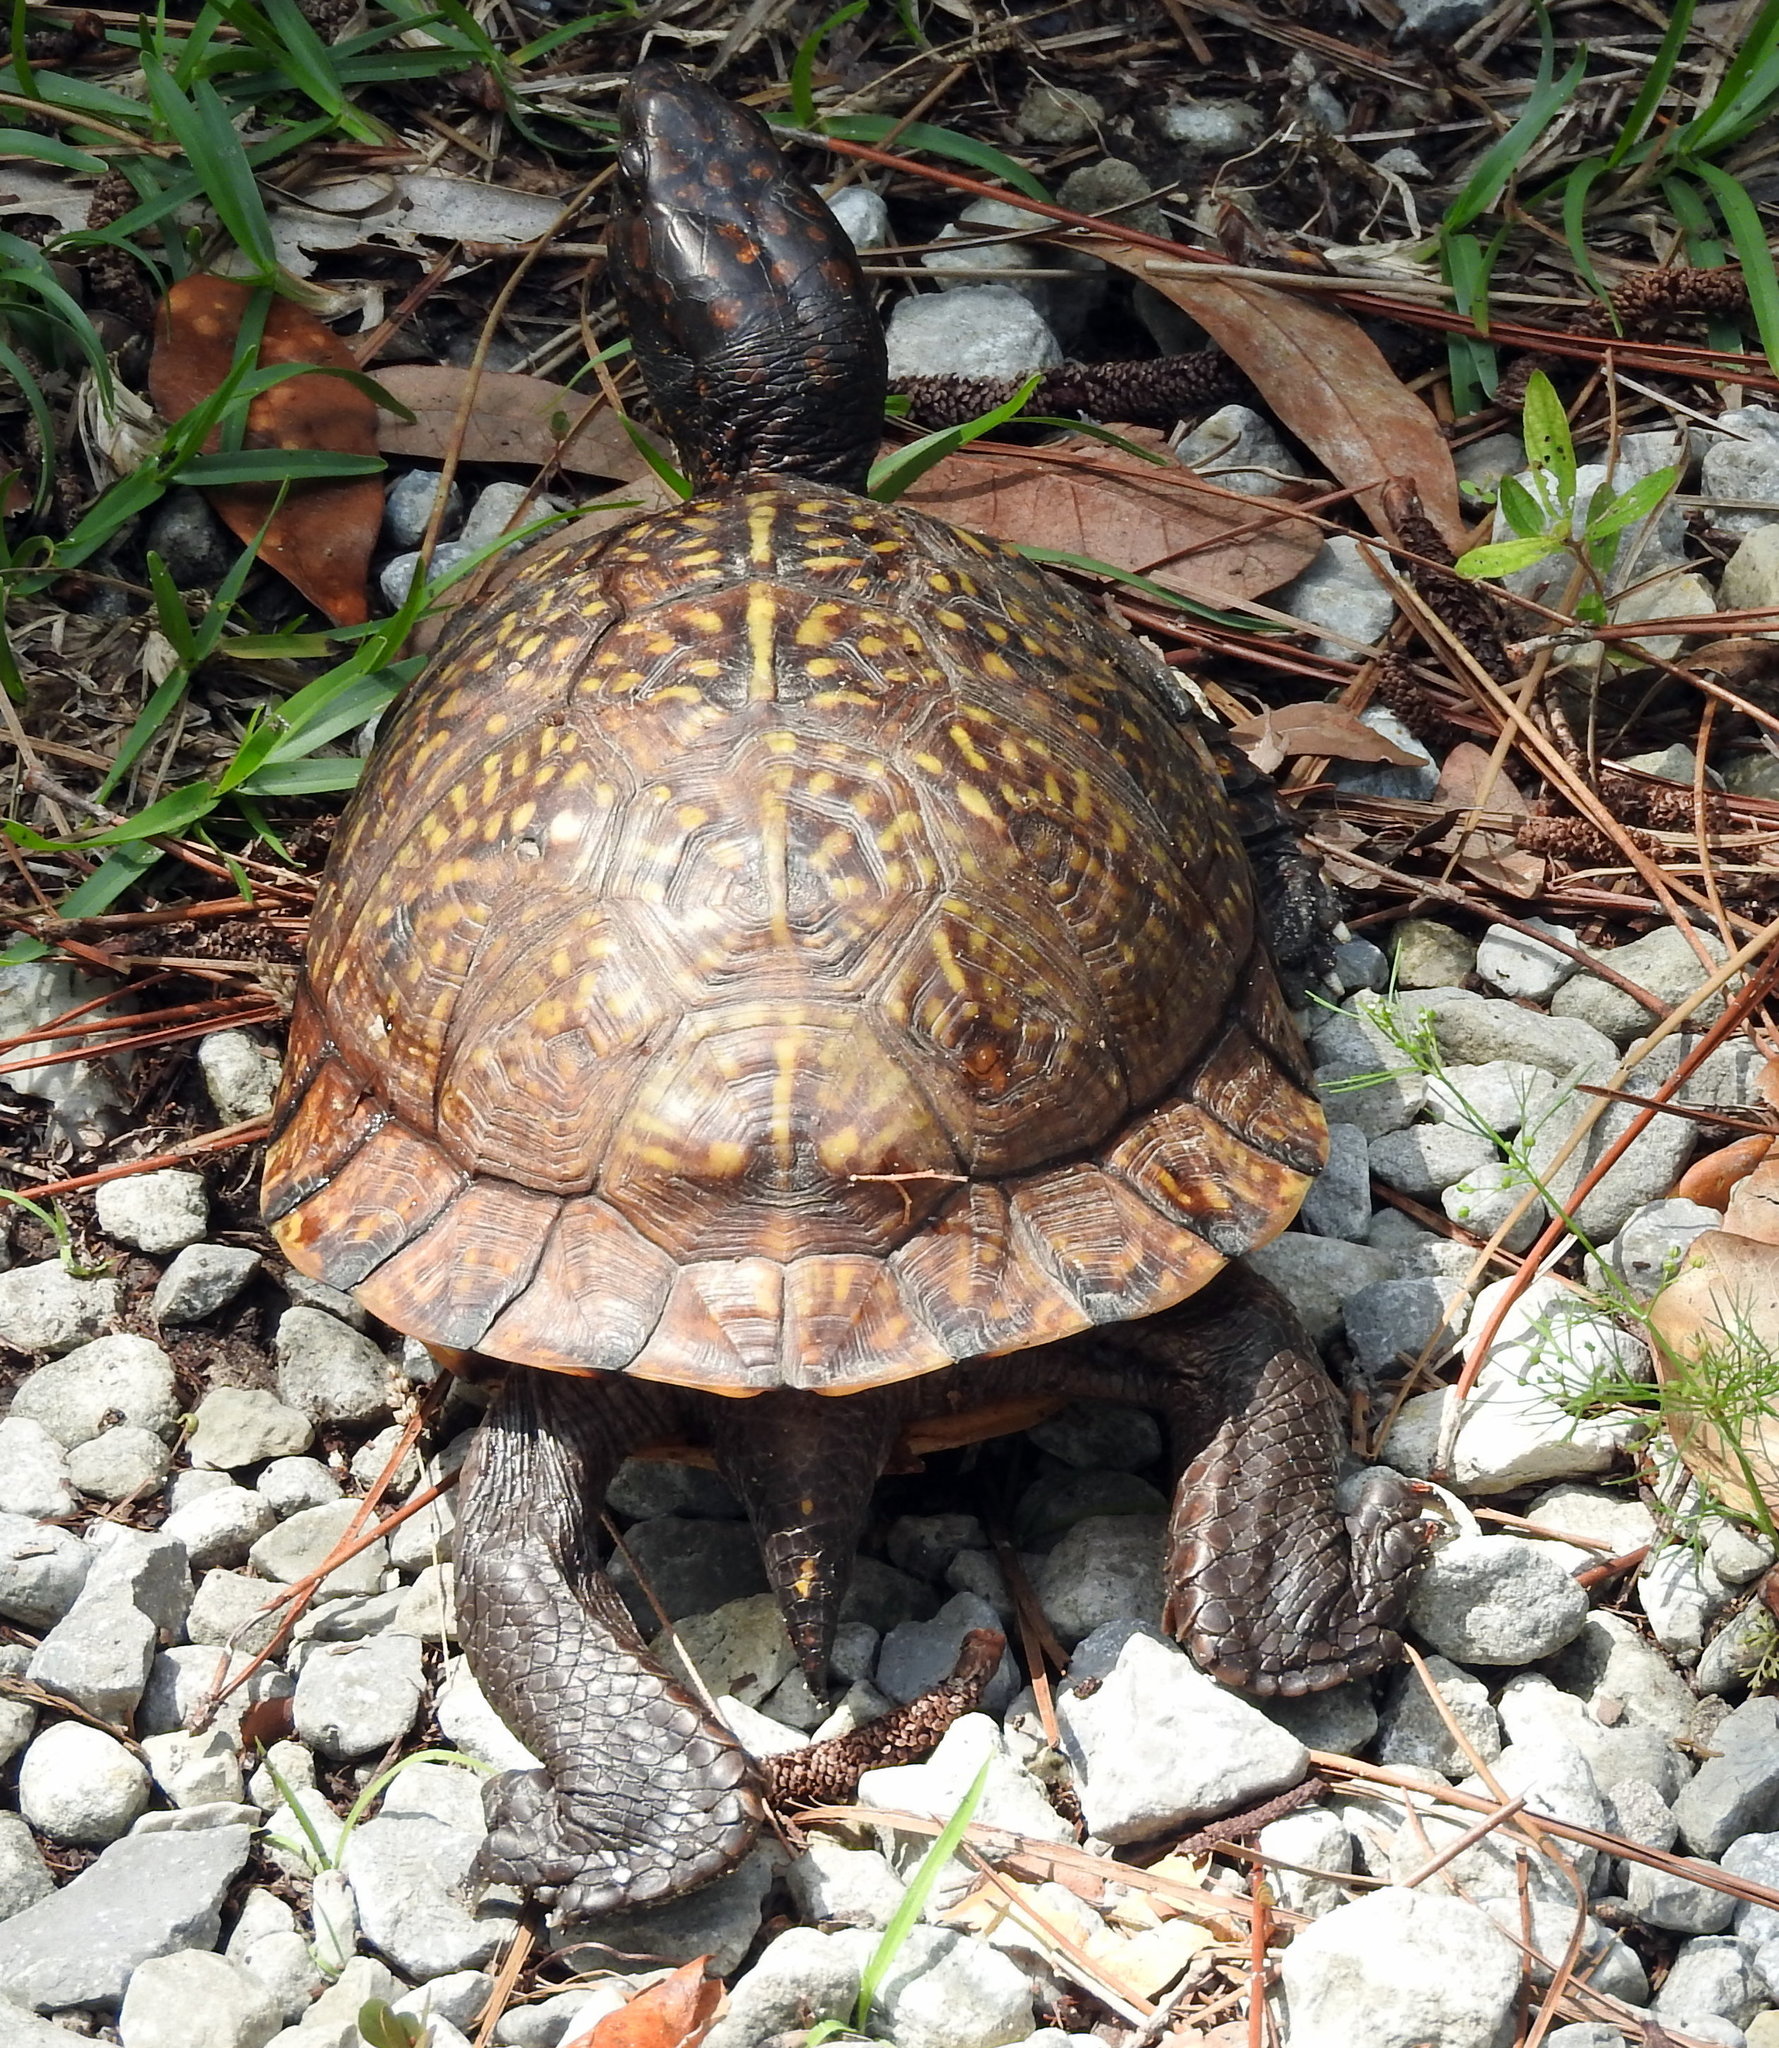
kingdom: Animalia
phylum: Chordata
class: Testudines
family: Emydidae
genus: Terrapene
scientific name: Terrapene carolina
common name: Common box turtle
